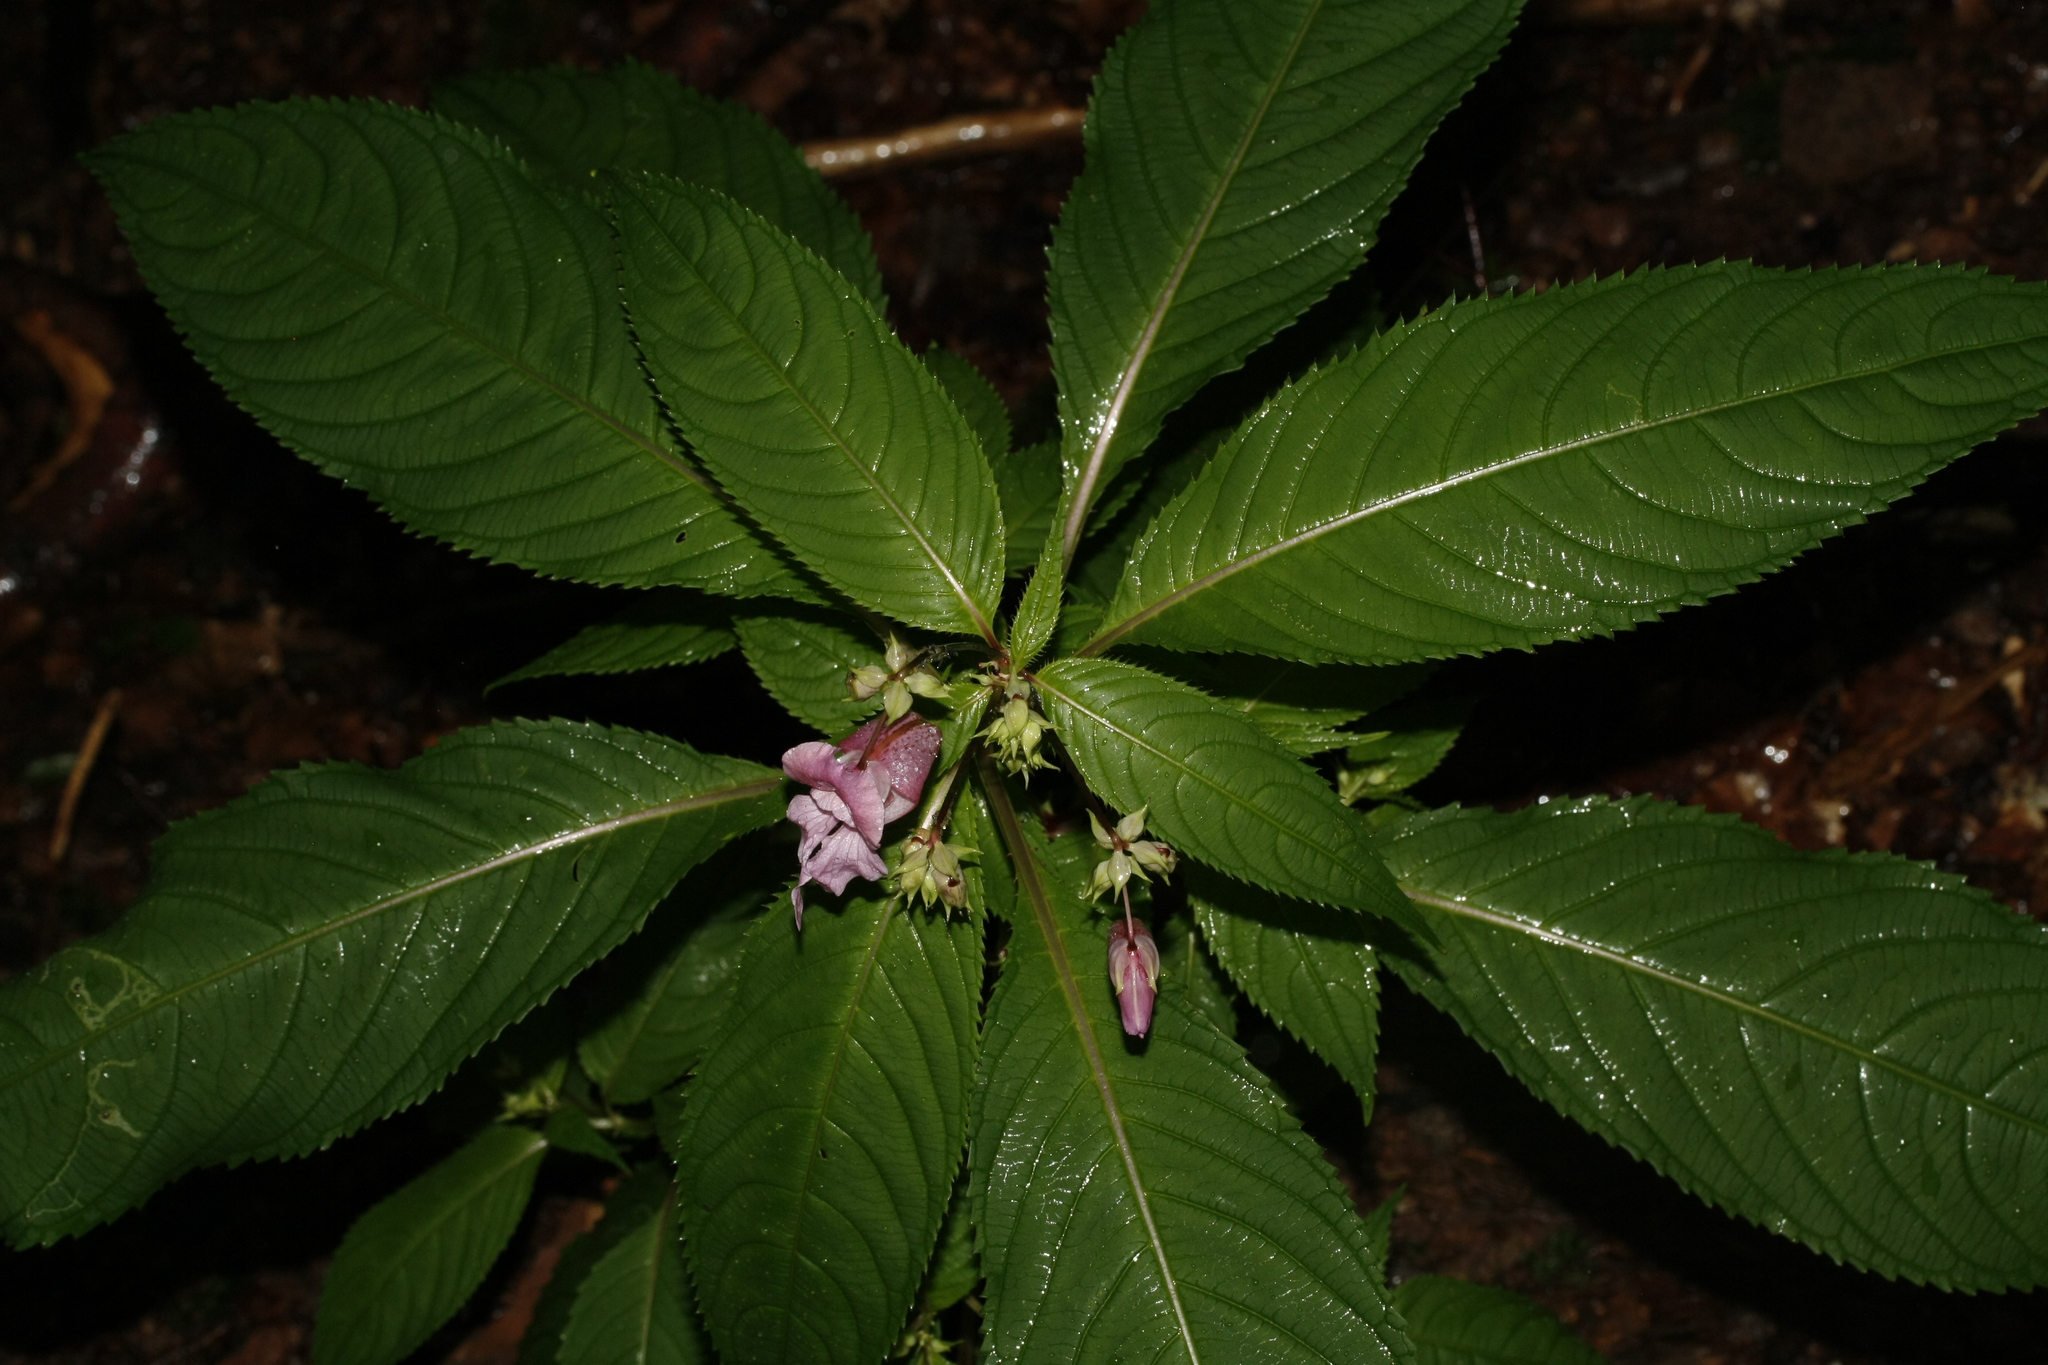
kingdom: Plantae
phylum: Tracheophyta
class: Magnoliopsida
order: Ericales
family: Balsaminaceae
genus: Impatiens
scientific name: Impatiens glandulifera
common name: Himalayan balsam
